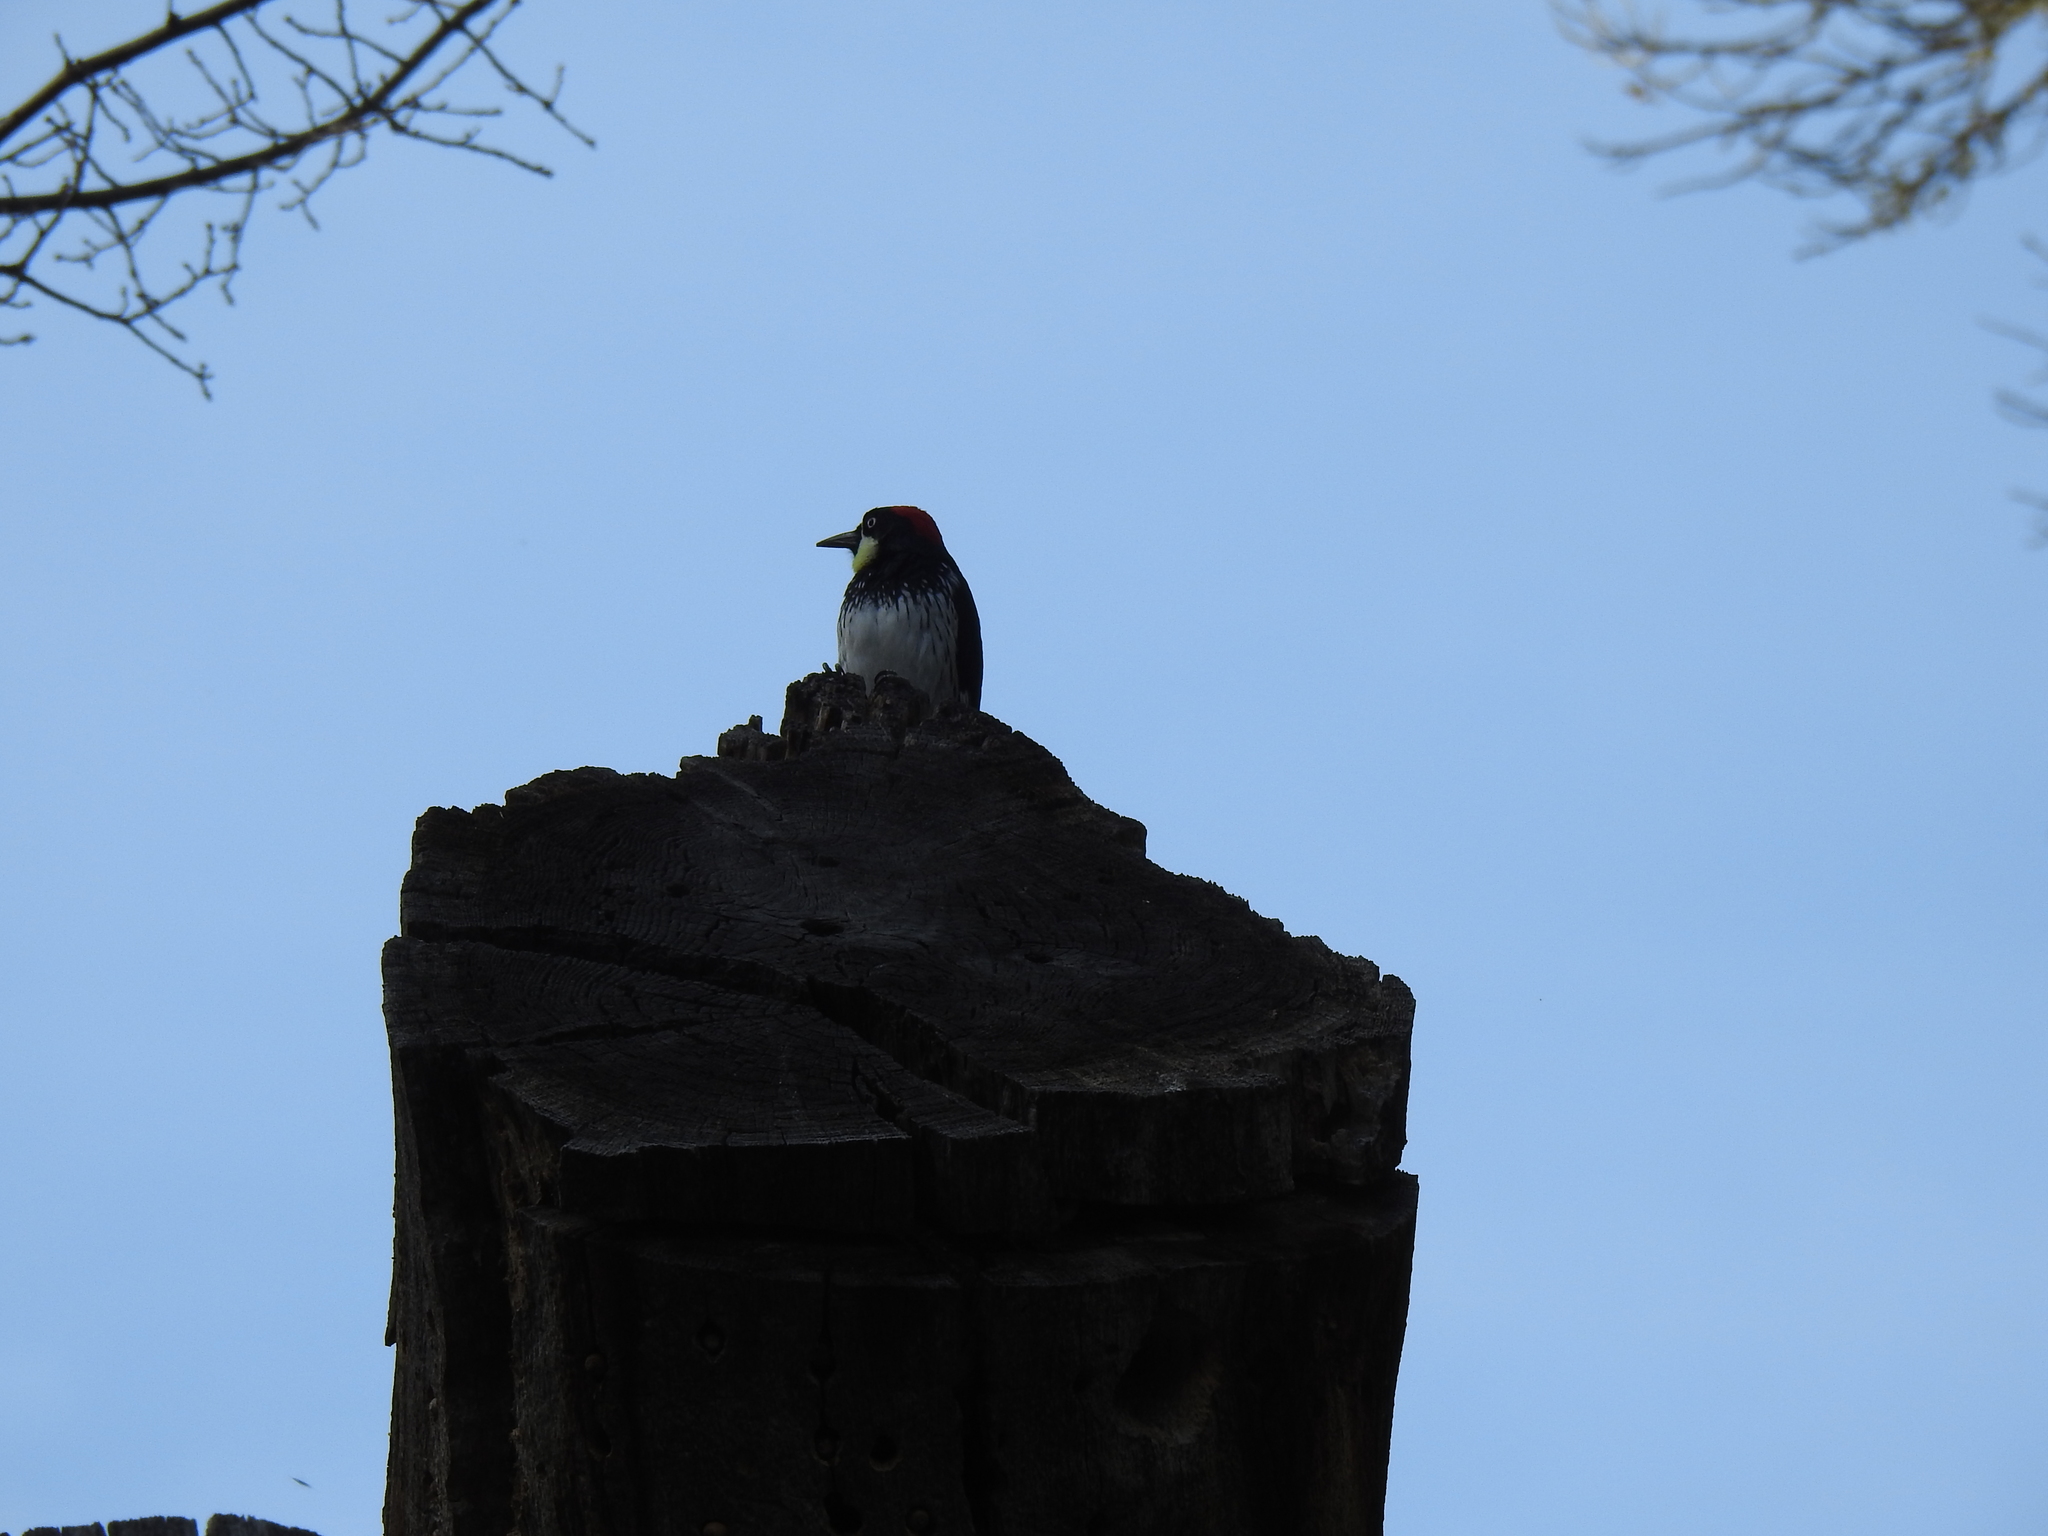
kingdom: Animalia
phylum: Chordata
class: Aves
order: Piciformes
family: Picidae
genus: Melanerpes
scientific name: Melanerpes formicivorus
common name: Acorn woodpecker
